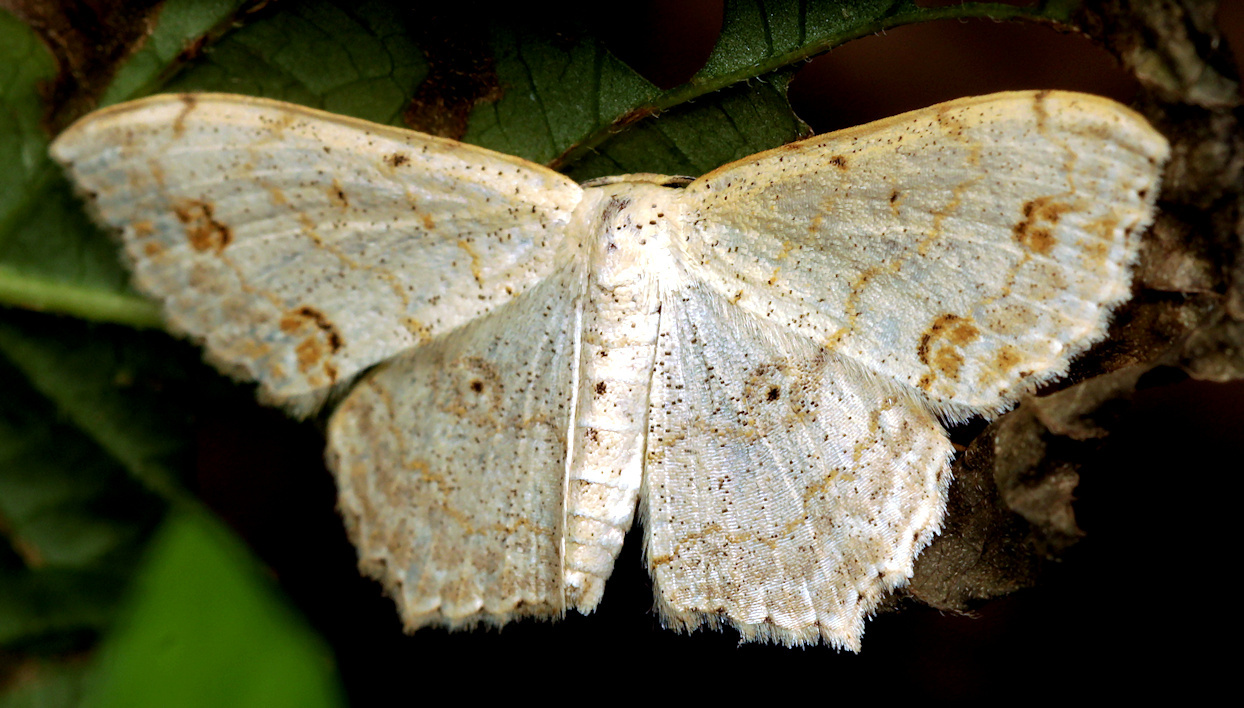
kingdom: Animalia
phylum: Arthropoda
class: Insecta
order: Lepidoptera
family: Geometridae
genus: Scopula
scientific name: Scopula fimbrilineata
